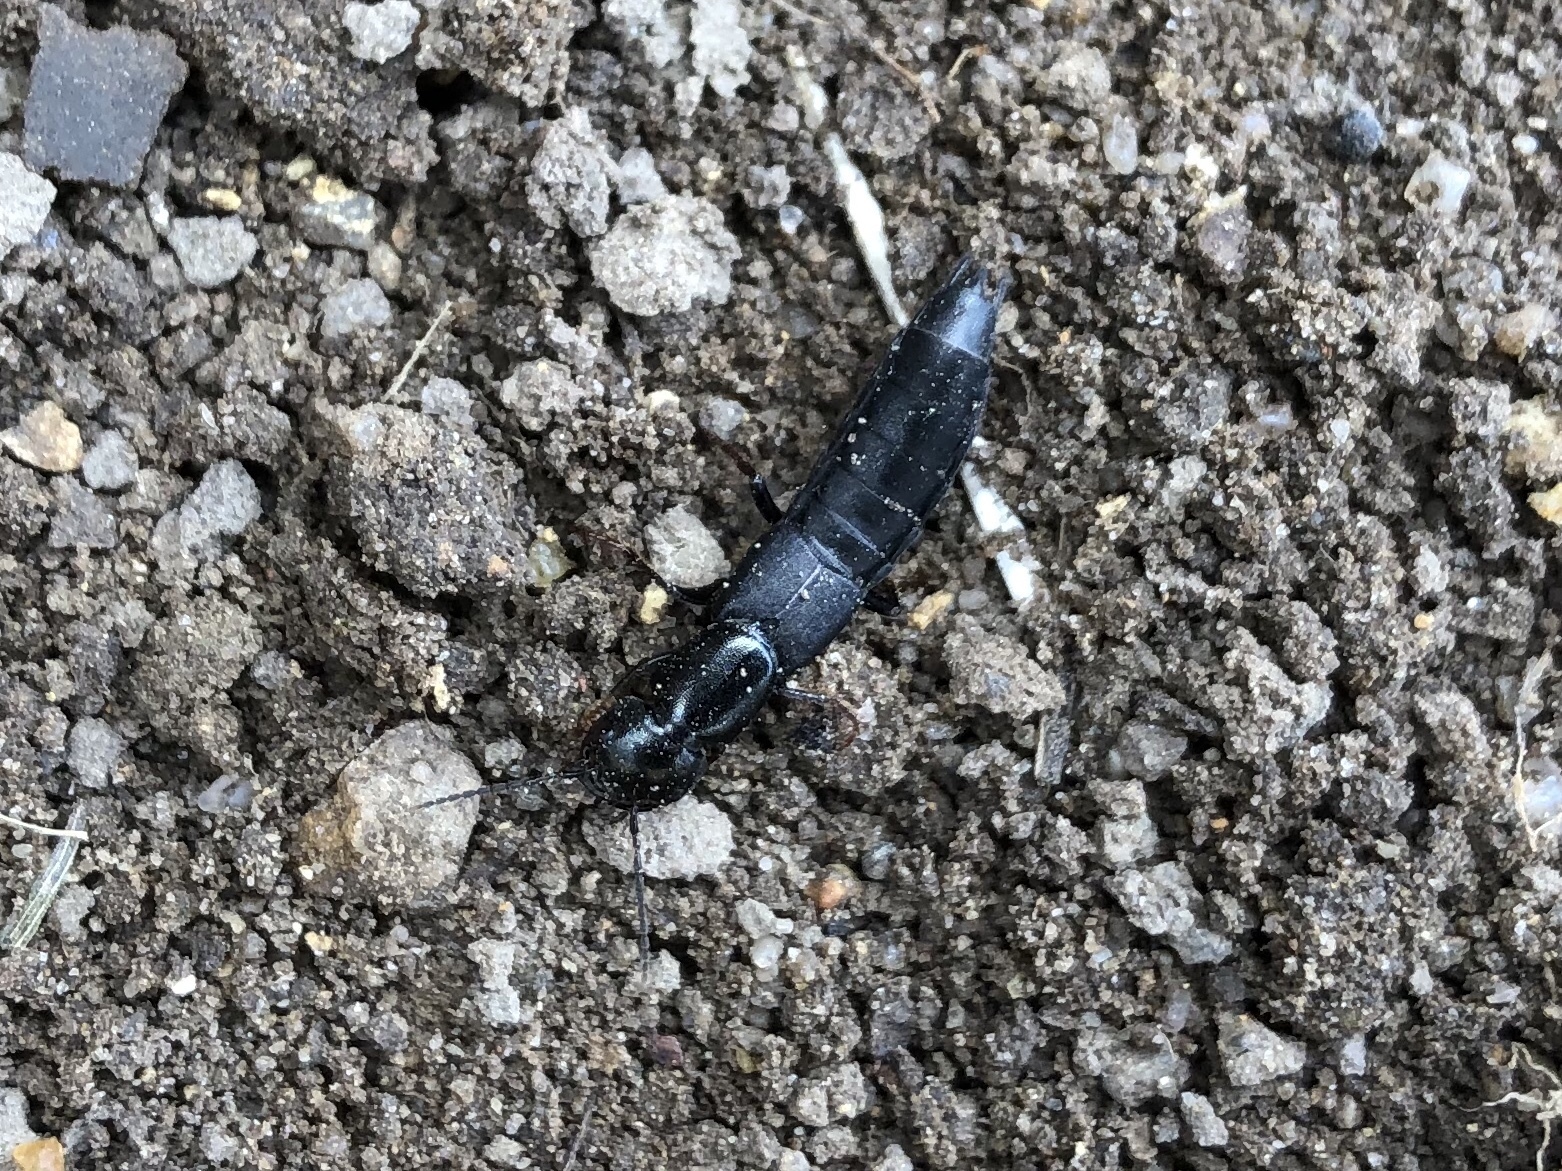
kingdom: Animalia
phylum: Arthropoda
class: Insecta
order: Coleoptera
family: Staphylinidae
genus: Tasgius
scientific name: Tasgius ater
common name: Staph beetle
